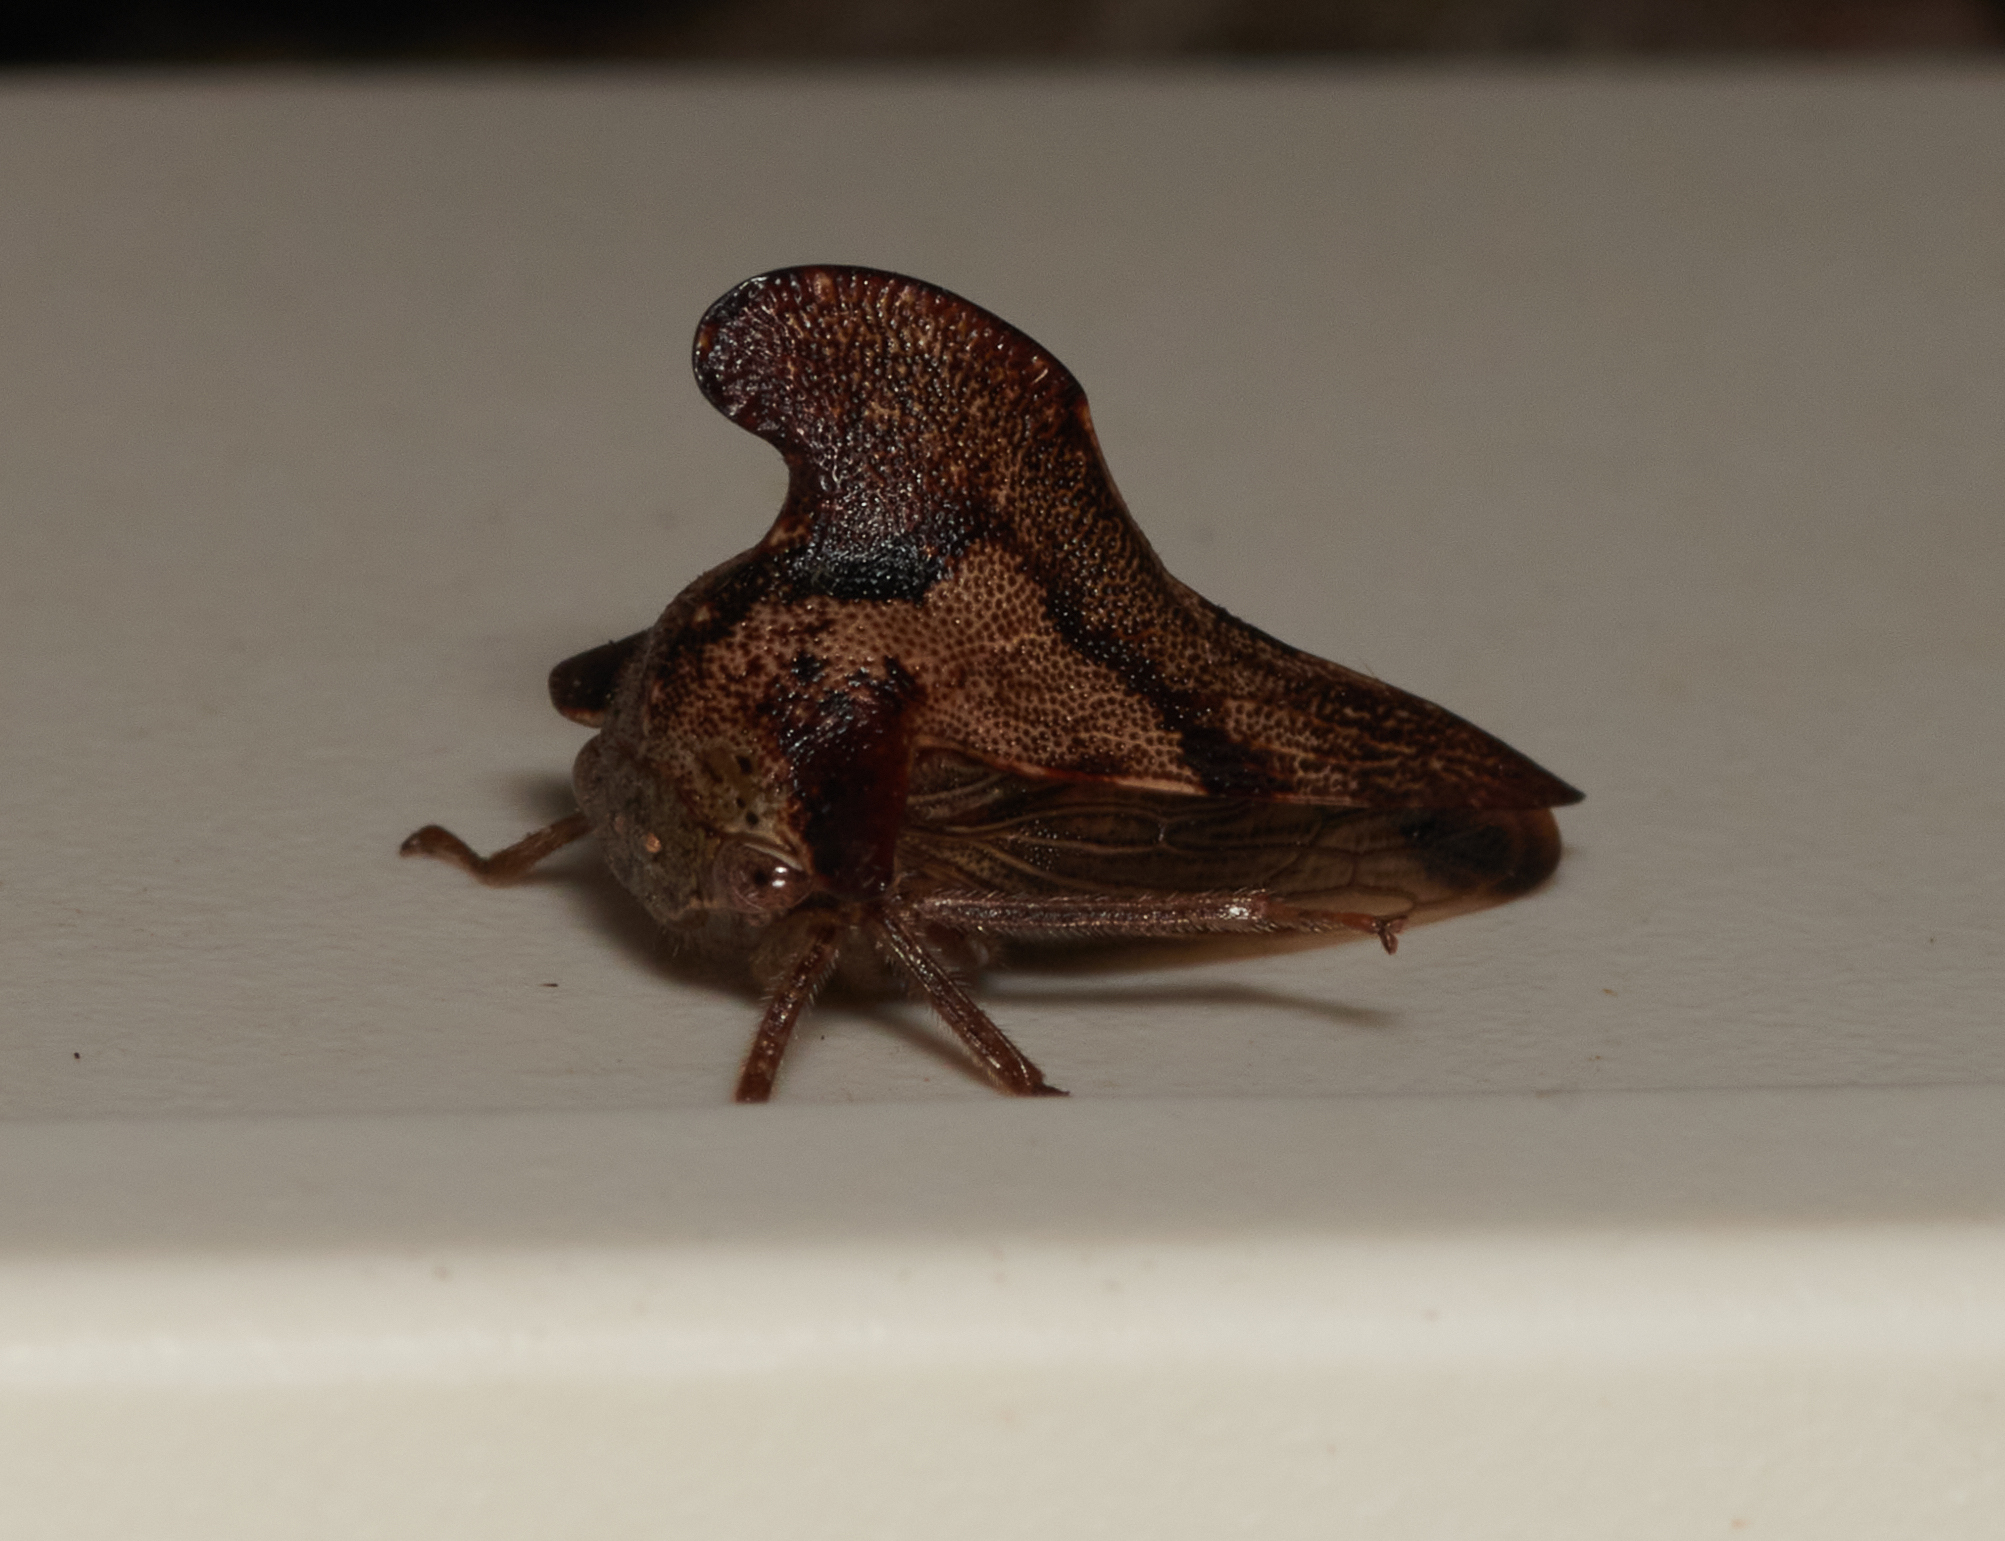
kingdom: Animalia
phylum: Arthropoda
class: Insecta
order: Hemiptera
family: Membracidae
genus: Telamona
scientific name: Telamona projecta
